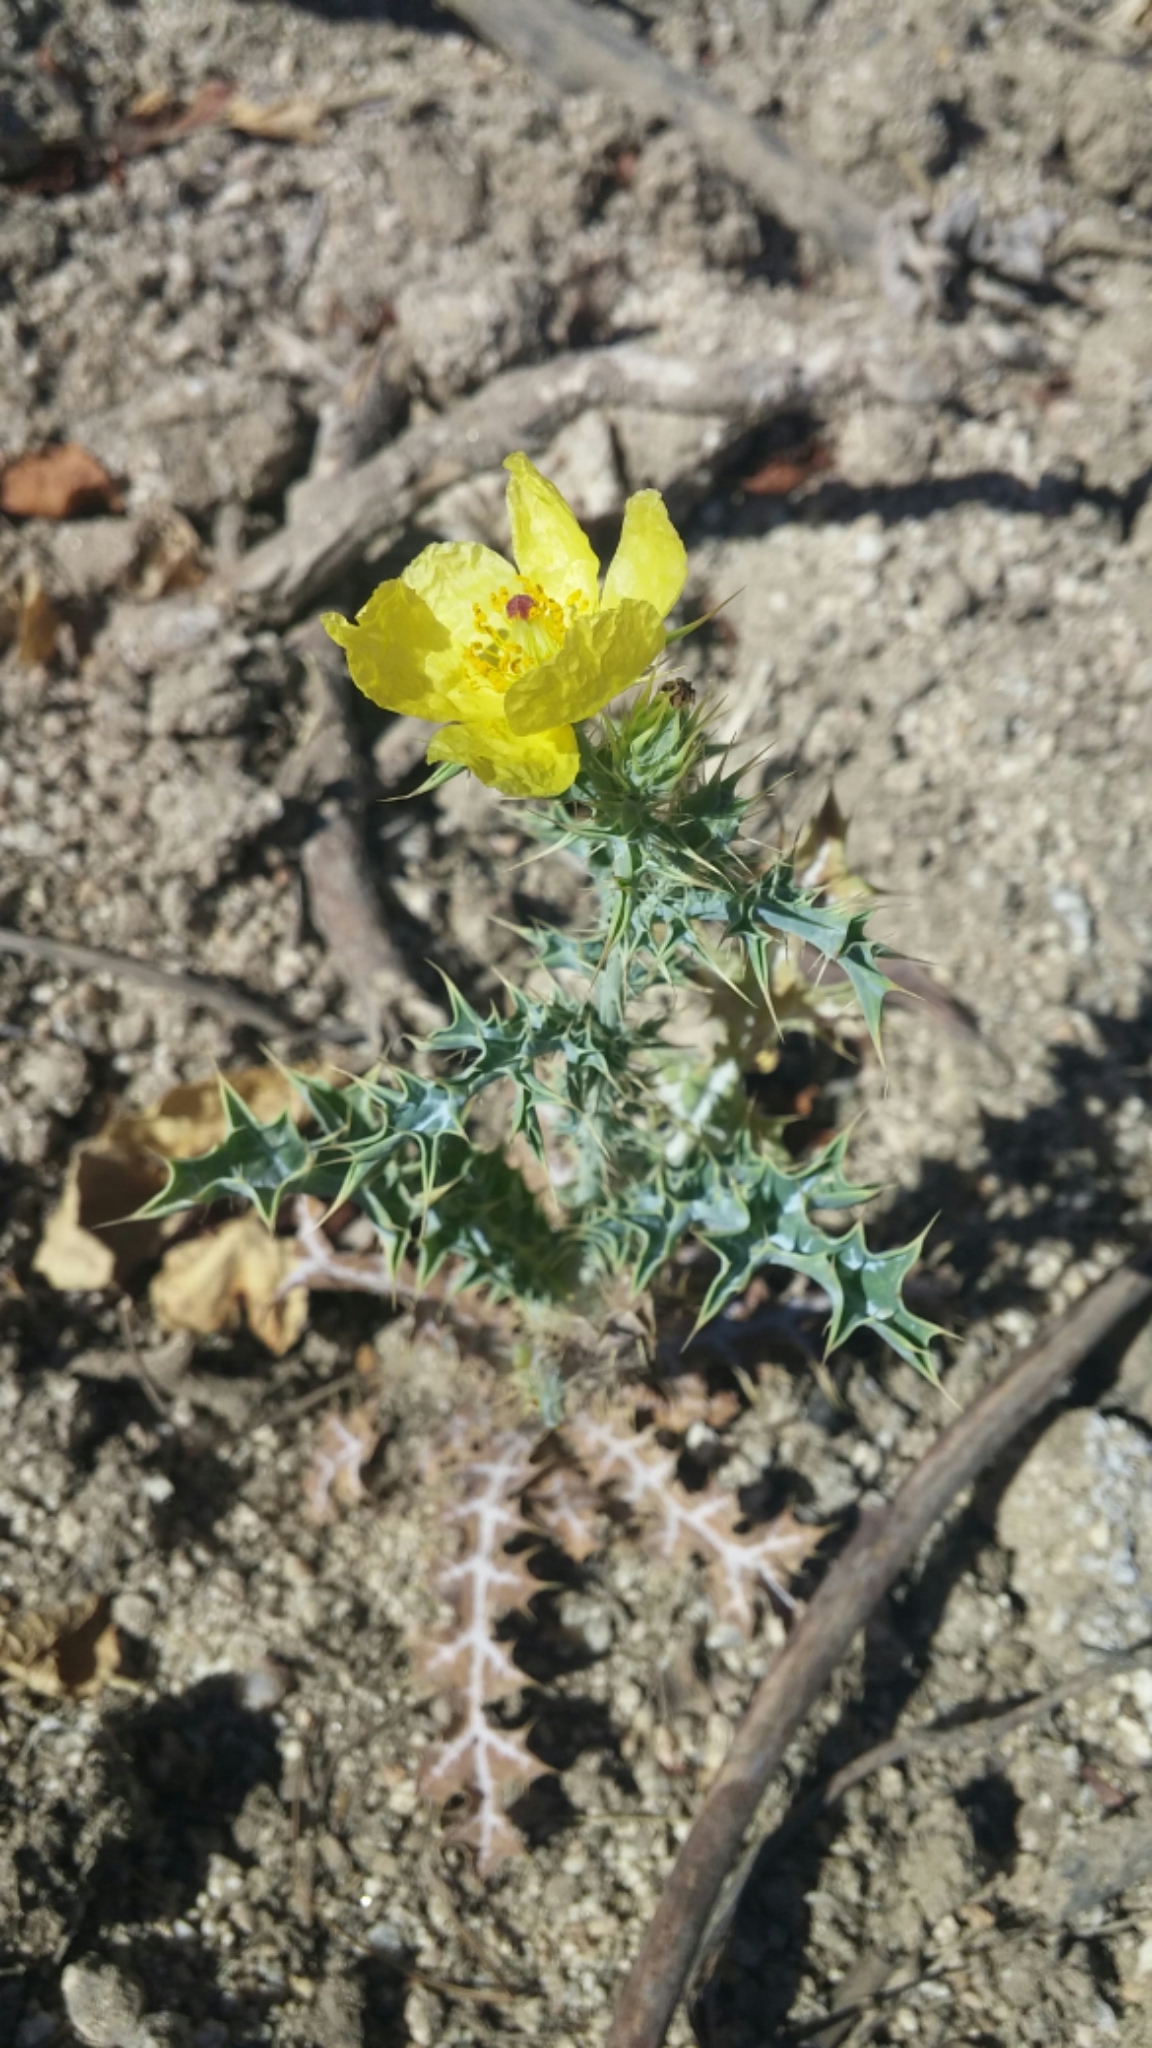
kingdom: Plantae
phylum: Tracheophyta
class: Magnoliopsida
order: Ranunculales
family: Papaveraceae
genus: Argemone
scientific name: Argemone mexicana
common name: Mexican poppy
